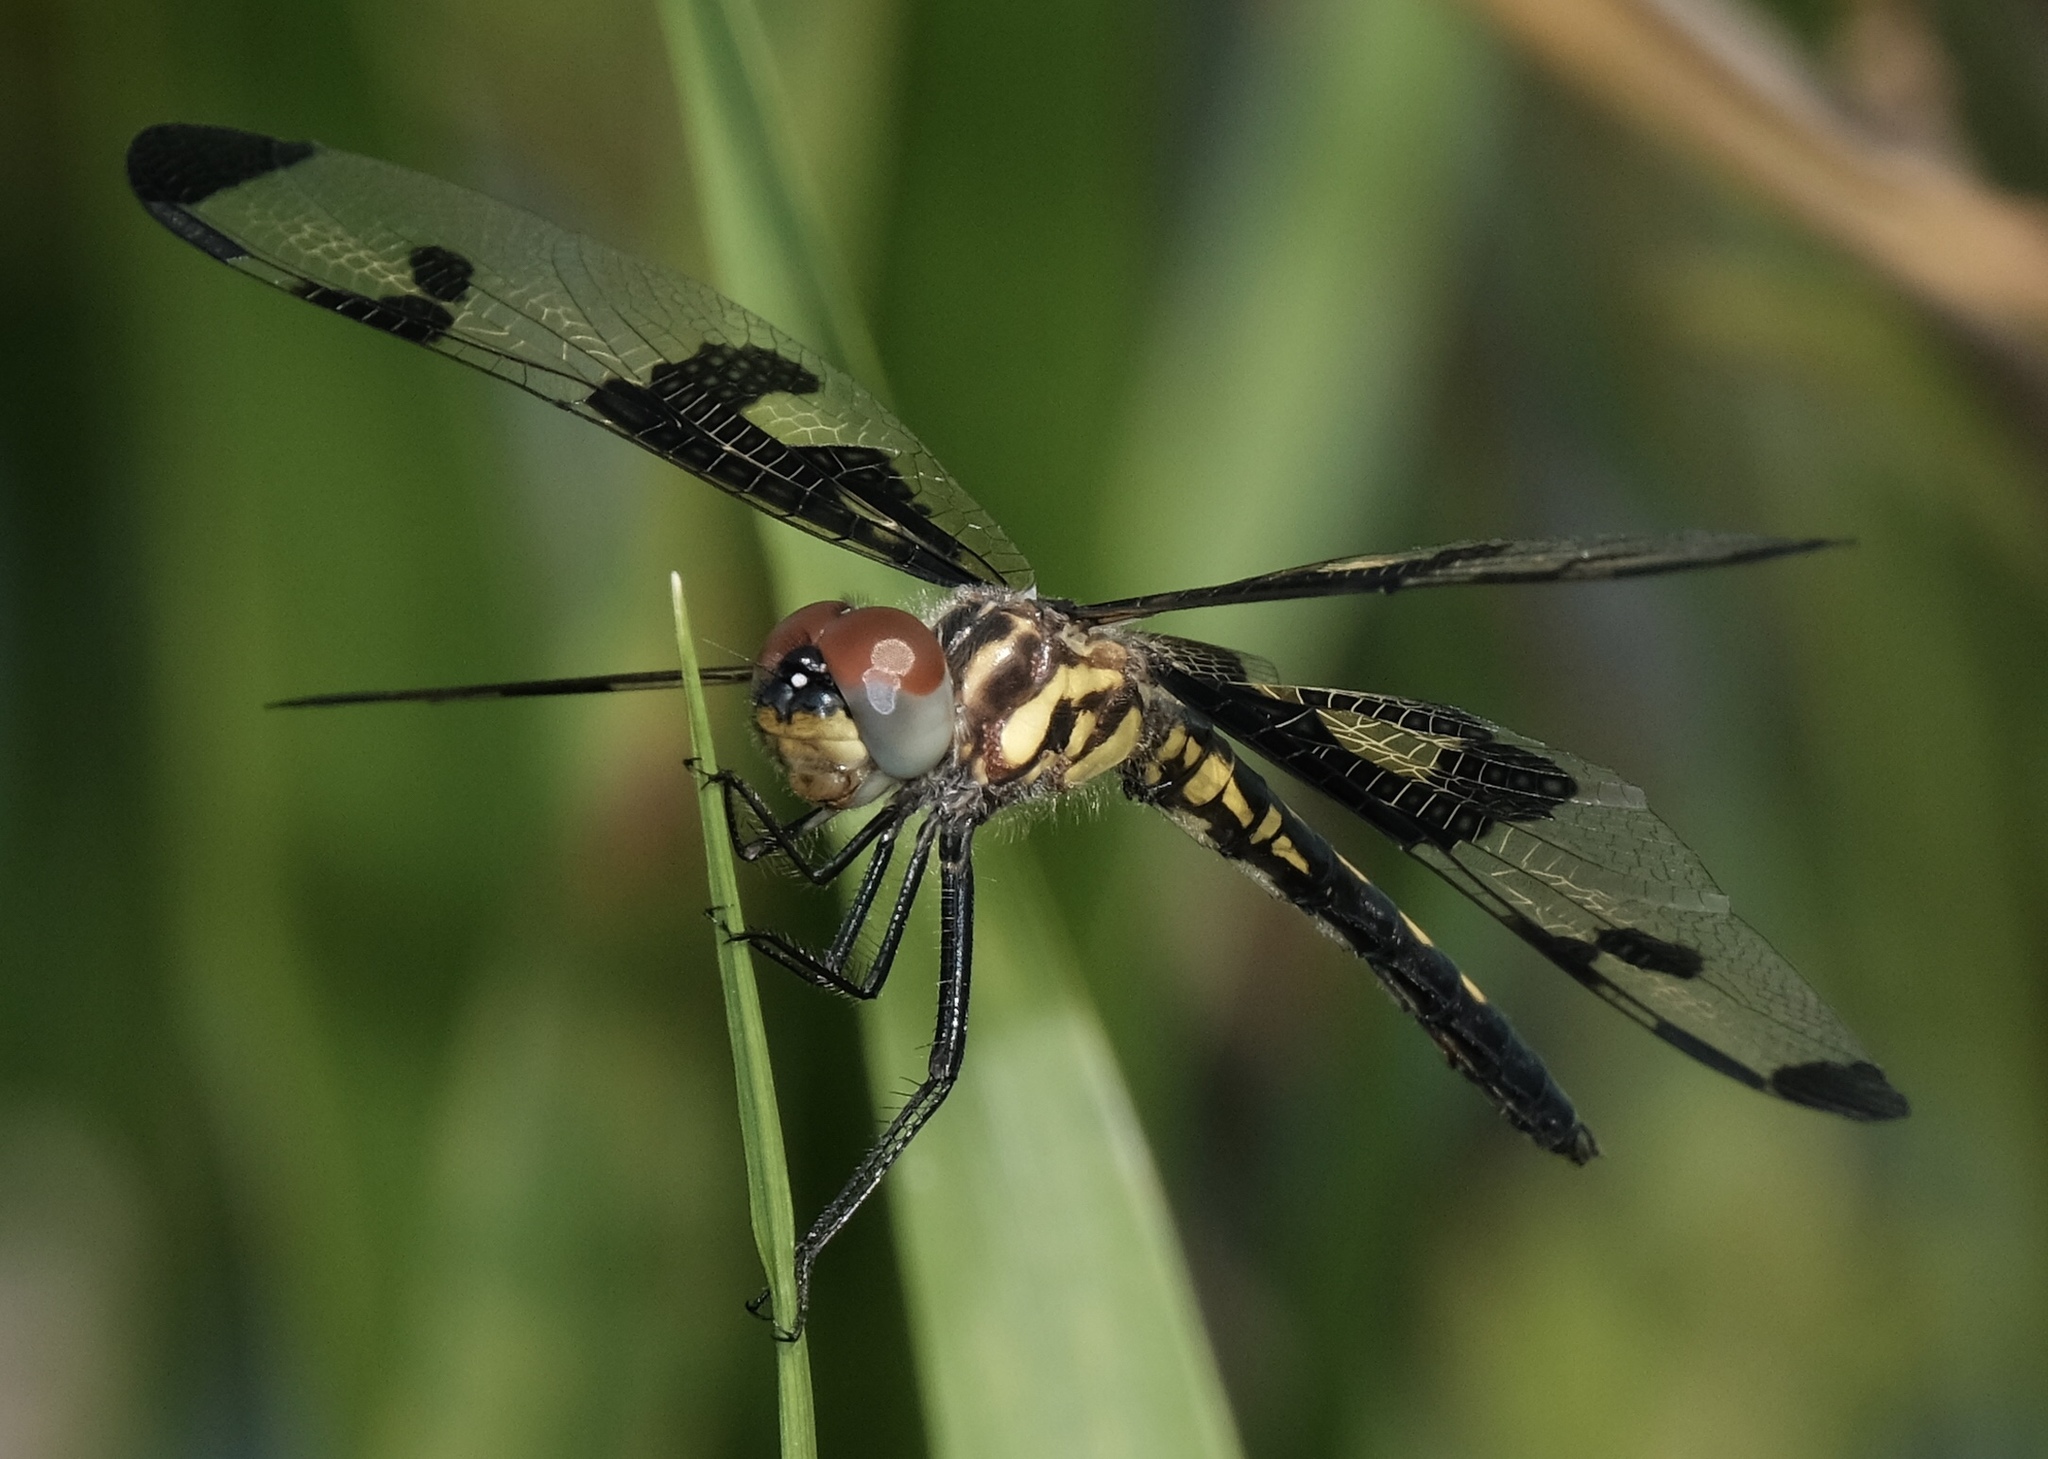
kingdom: Animalia
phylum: Arthropoda
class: Insecta
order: Odonata
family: Libellulidae
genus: Celithemis
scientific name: Celithemis fasciata
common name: Banded pennant
